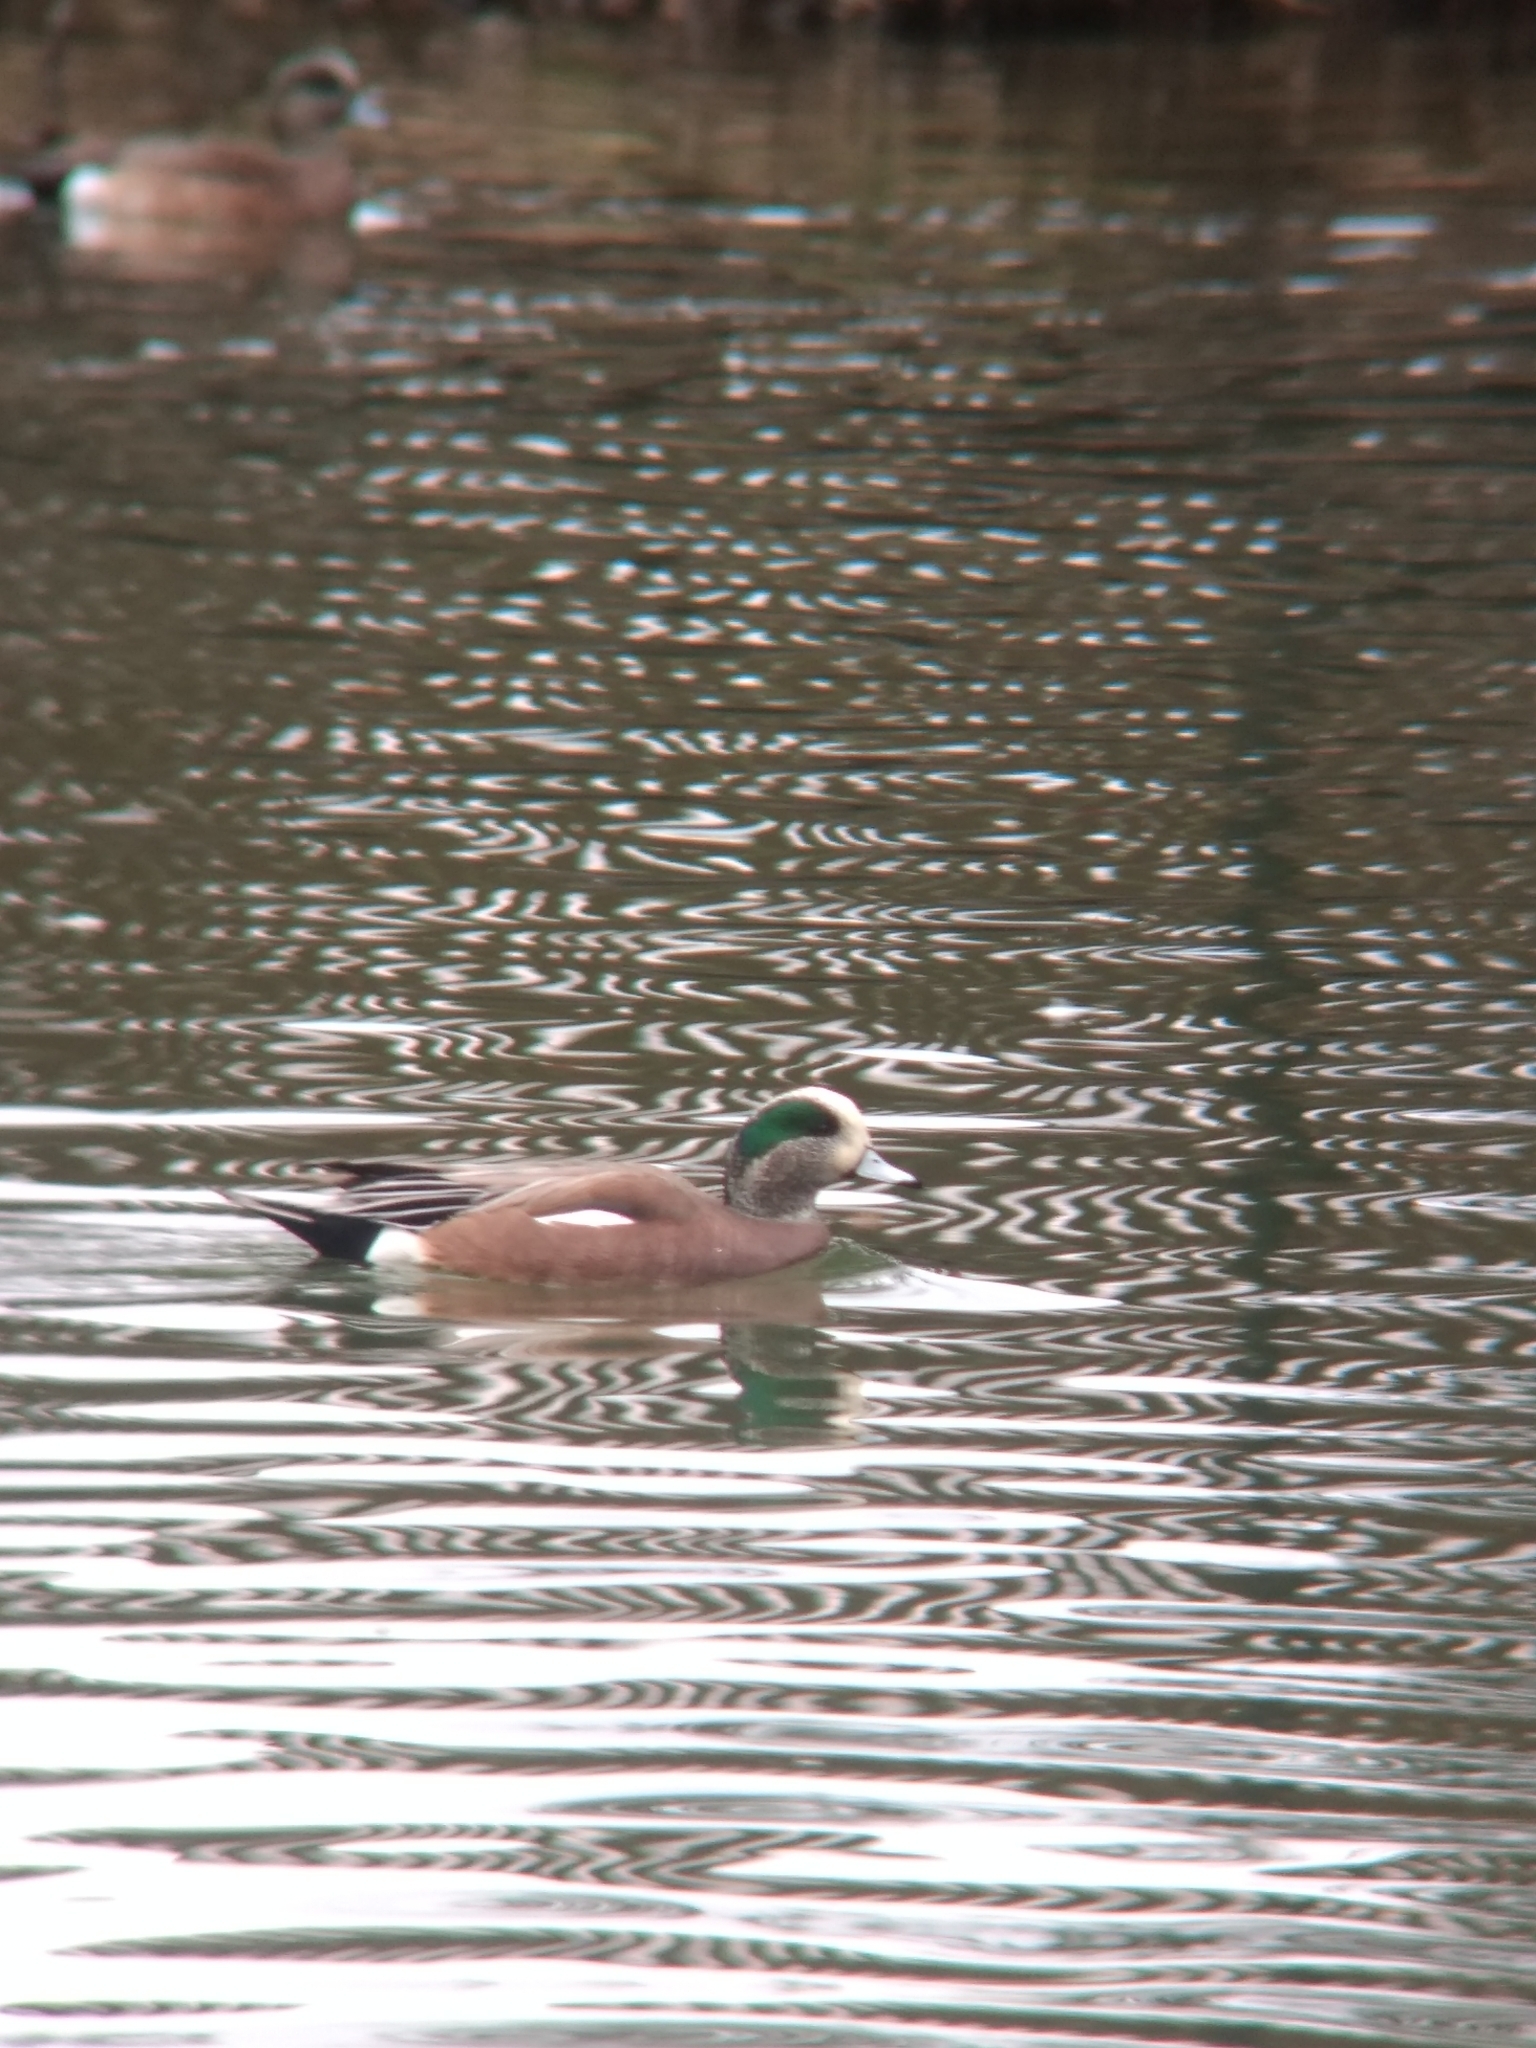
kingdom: Animalia
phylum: Chordata
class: Aves
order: Anseriformes
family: Anatidae
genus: Mareca
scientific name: Mareca americana
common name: American wigeon
